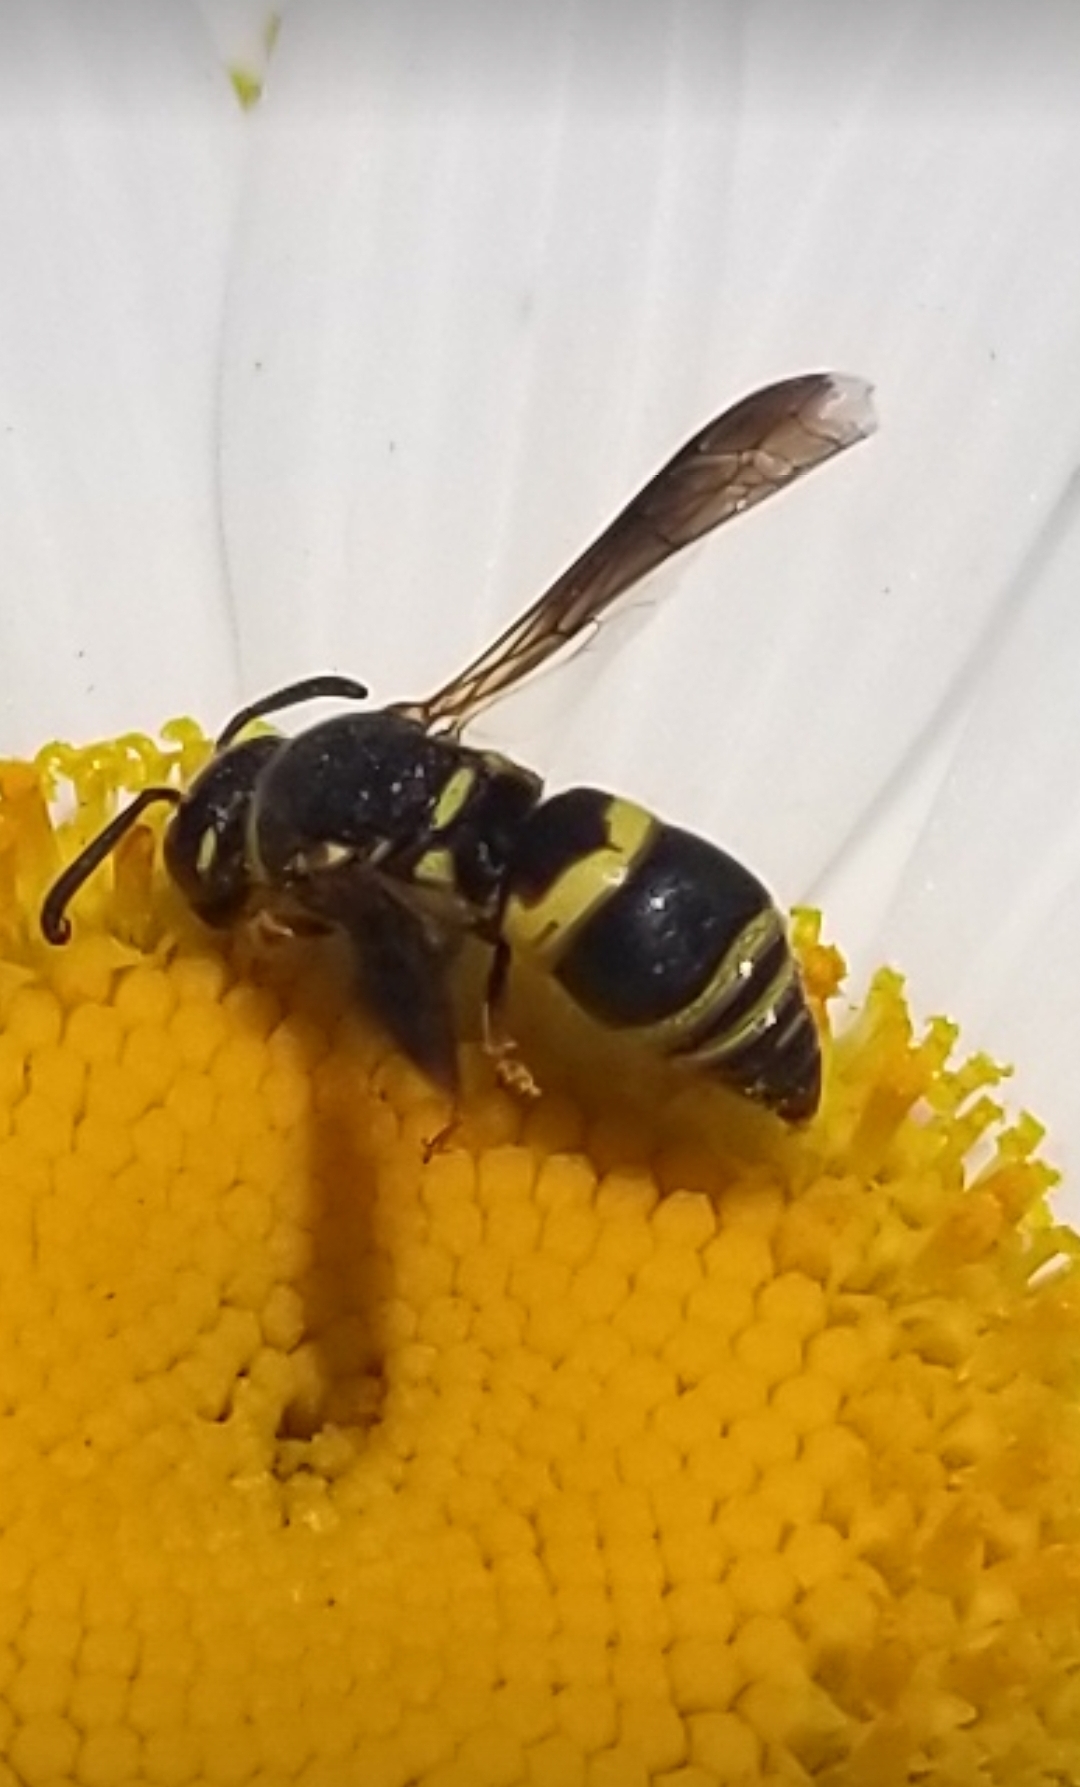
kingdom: Animalia
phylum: Arthropoda
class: Insecta
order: Hymenoptera
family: Eumenidae
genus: Euodynerus
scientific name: Euodynerus hidalgo
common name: Wasp
